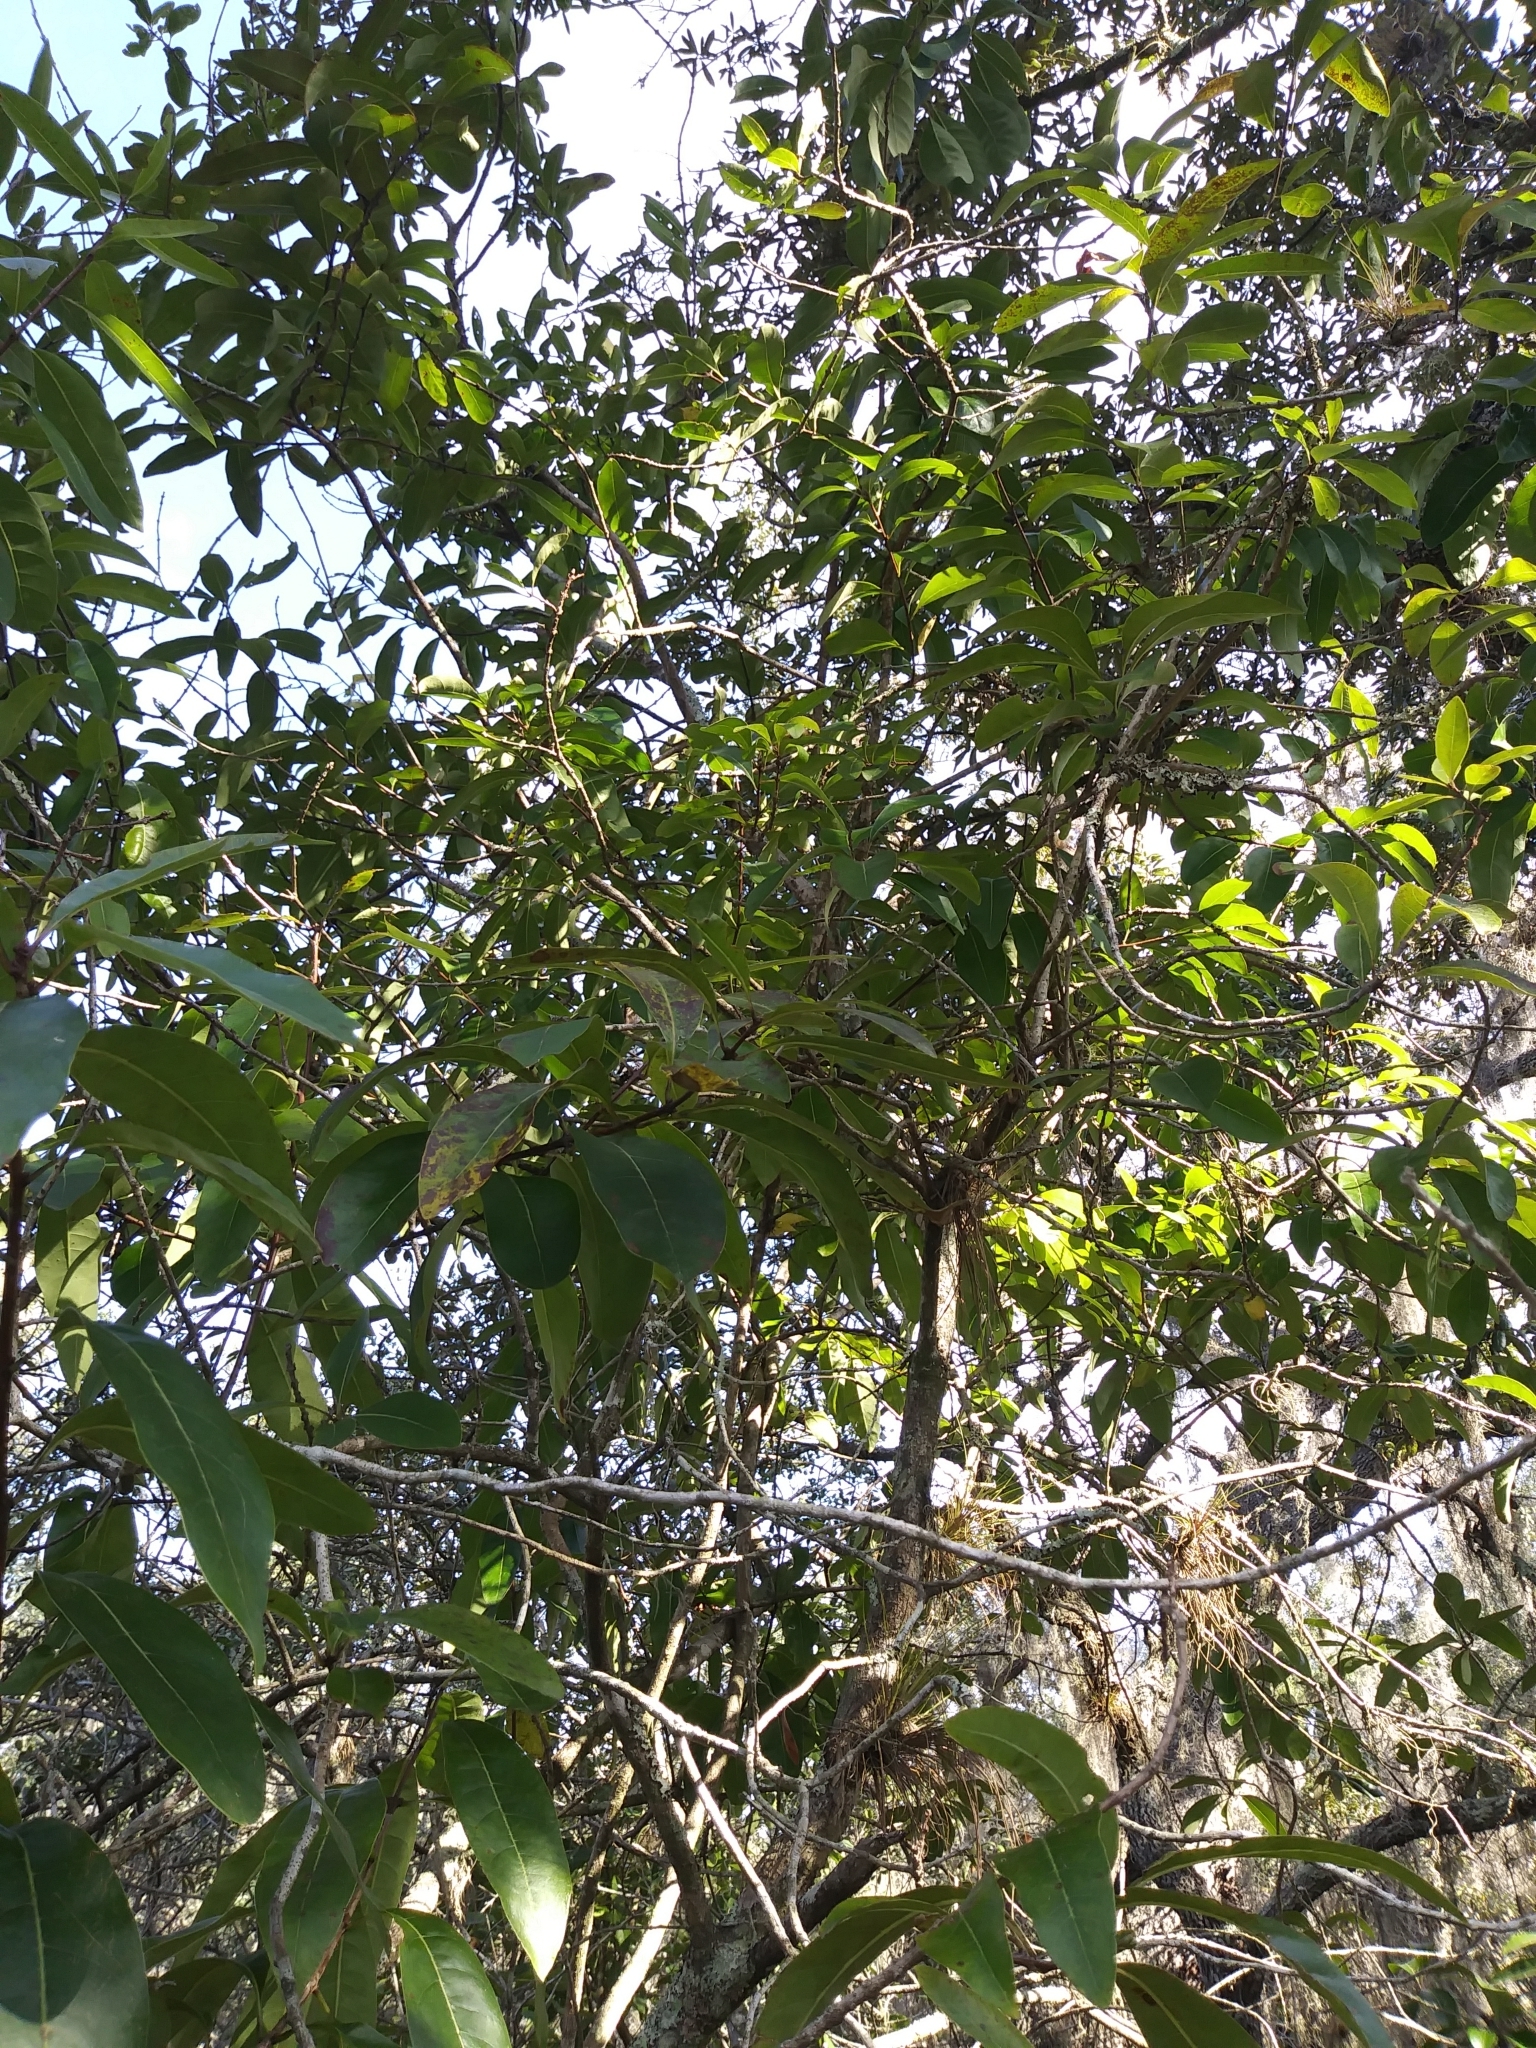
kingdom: Plantae
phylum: Tracheophyta
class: Magnoliopsida
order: Sapindales
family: Anacardiaceae
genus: Mangifera
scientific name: Mangifera indica
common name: Mango
